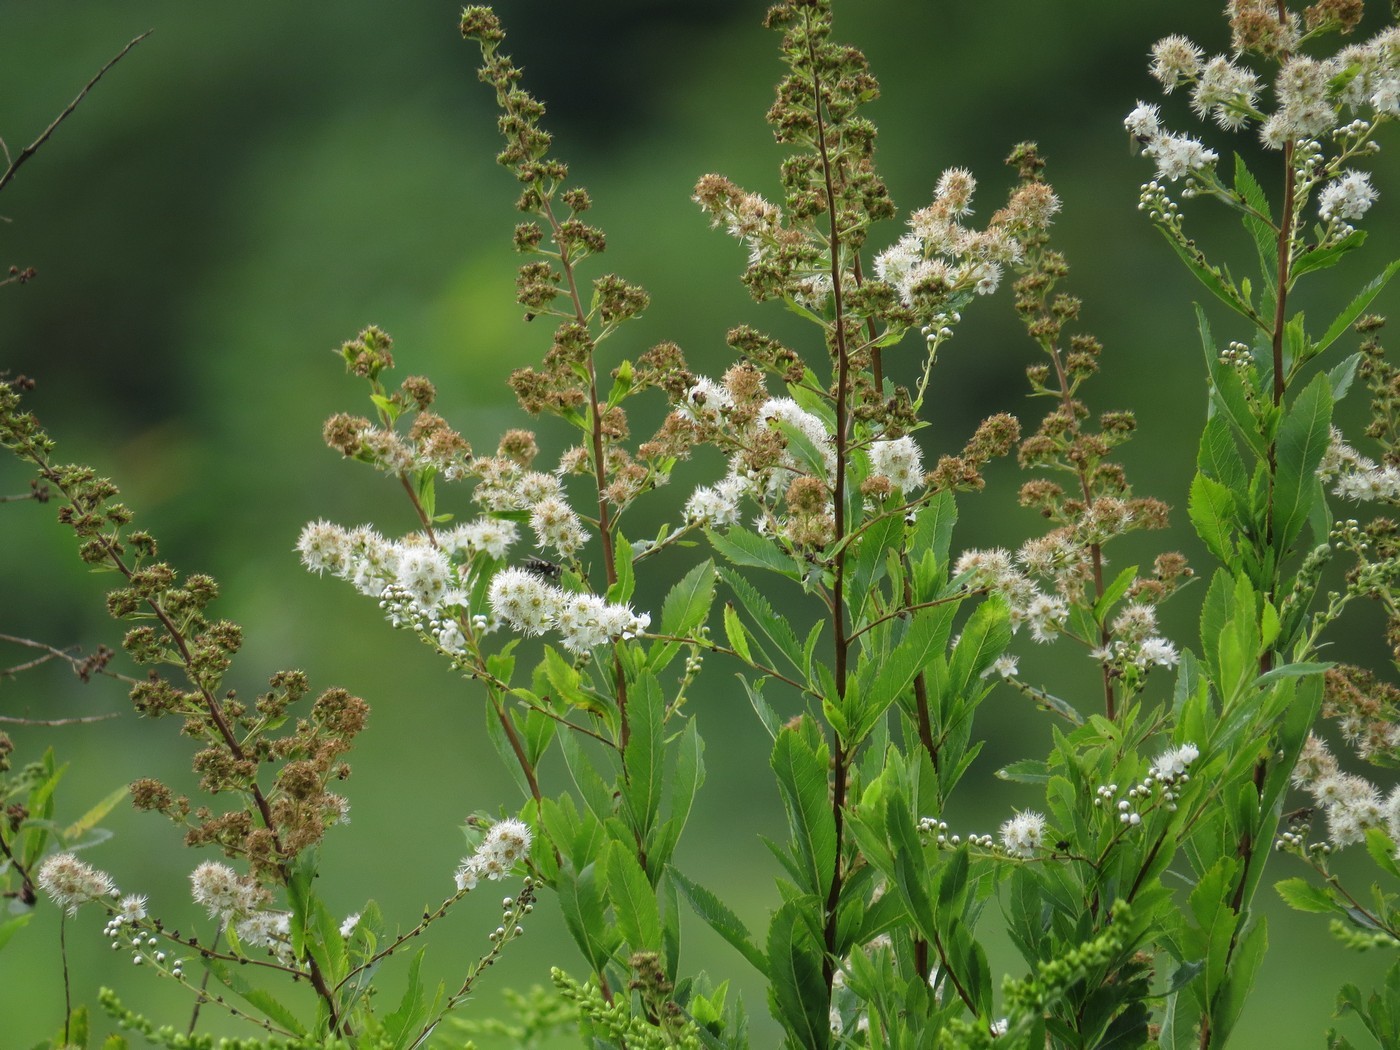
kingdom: Plantae
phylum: Tracheophyta
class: Magnoliopsida
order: Rosales
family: Rosaceae
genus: Spiraea
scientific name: Spiraea alba
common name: Pale bridewort
